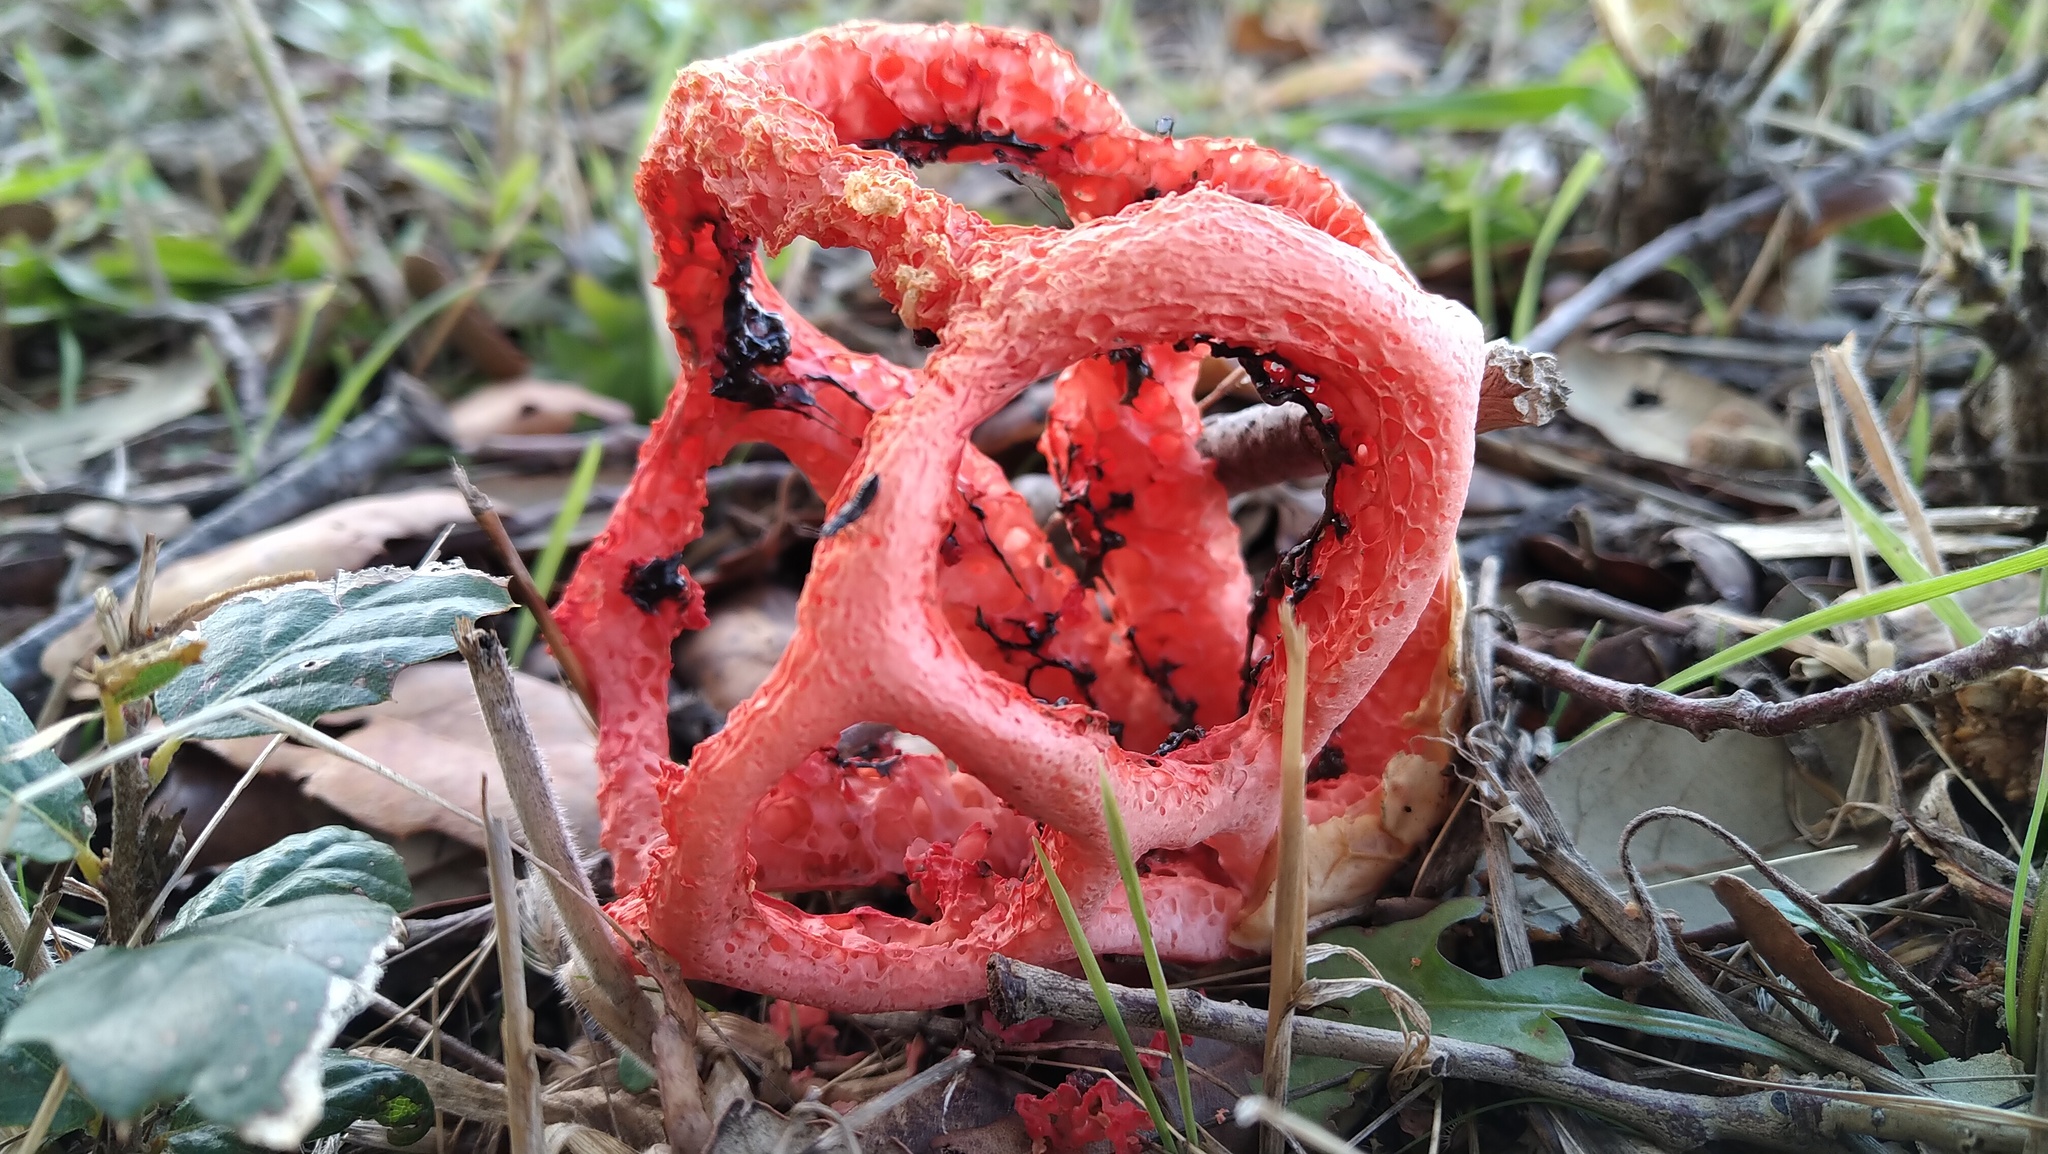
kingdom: Fungi
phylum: Basidiomycota
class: Agaricomycetes
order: Phallales
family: Phallaceae
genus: Clathrus
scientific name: Clathrus ruber
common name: Red cage
